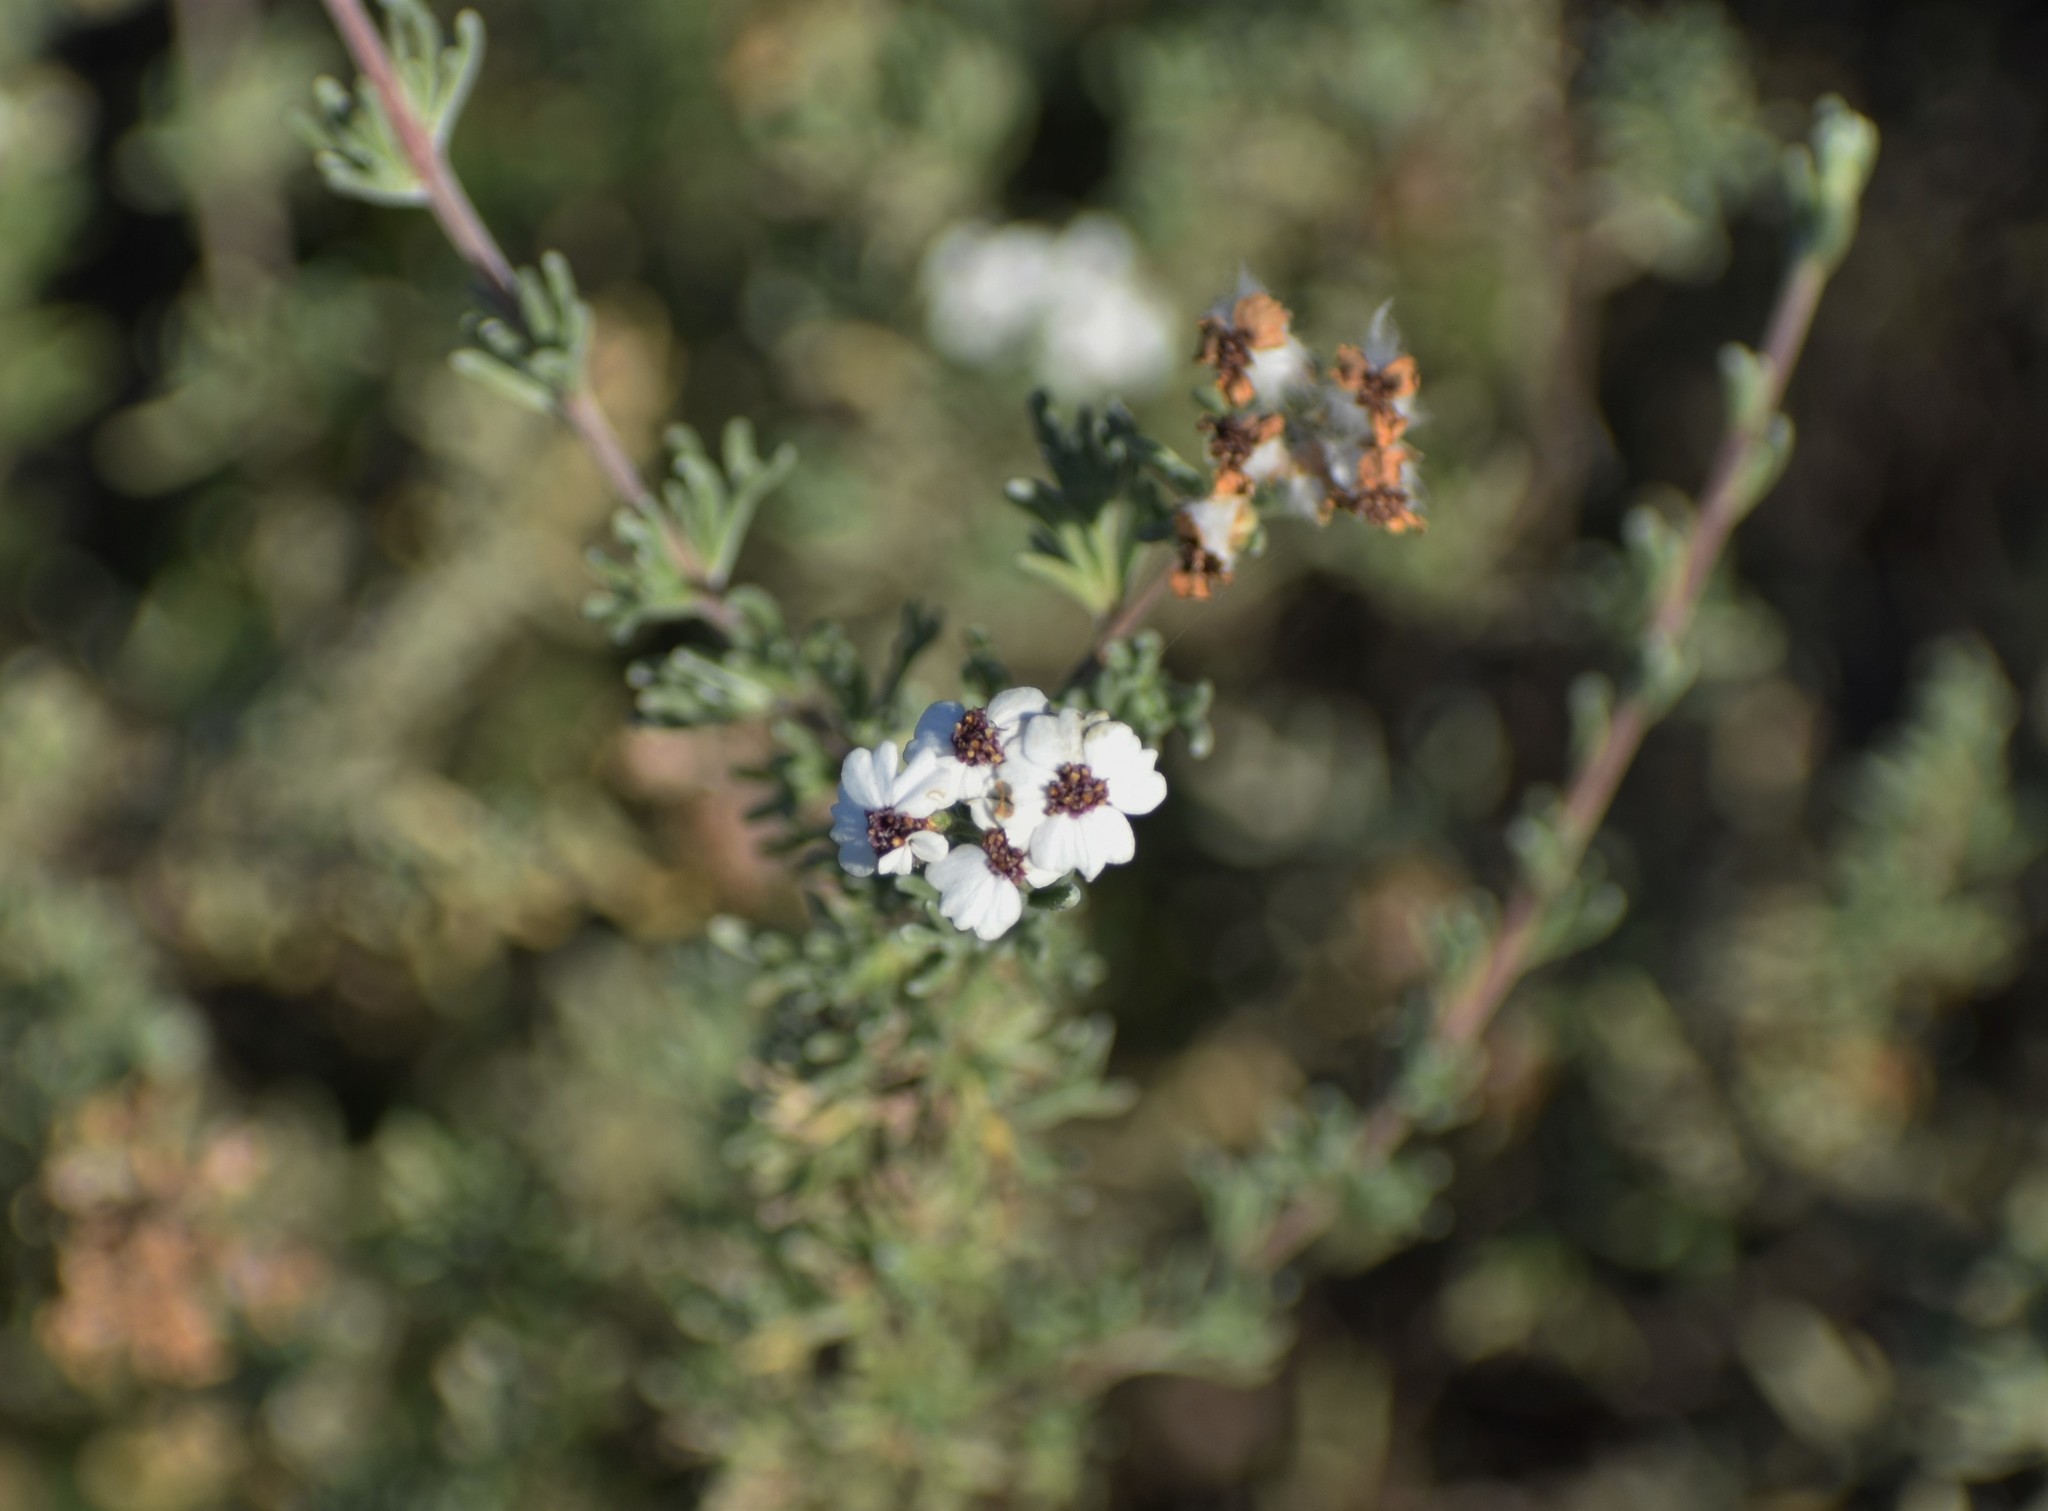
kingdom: Plantae
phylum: Tracheophyta
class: Magnoliopsida
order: Asterales
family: Asteraceae
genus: Eriocephalus
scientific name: Eriocephalus africanus
